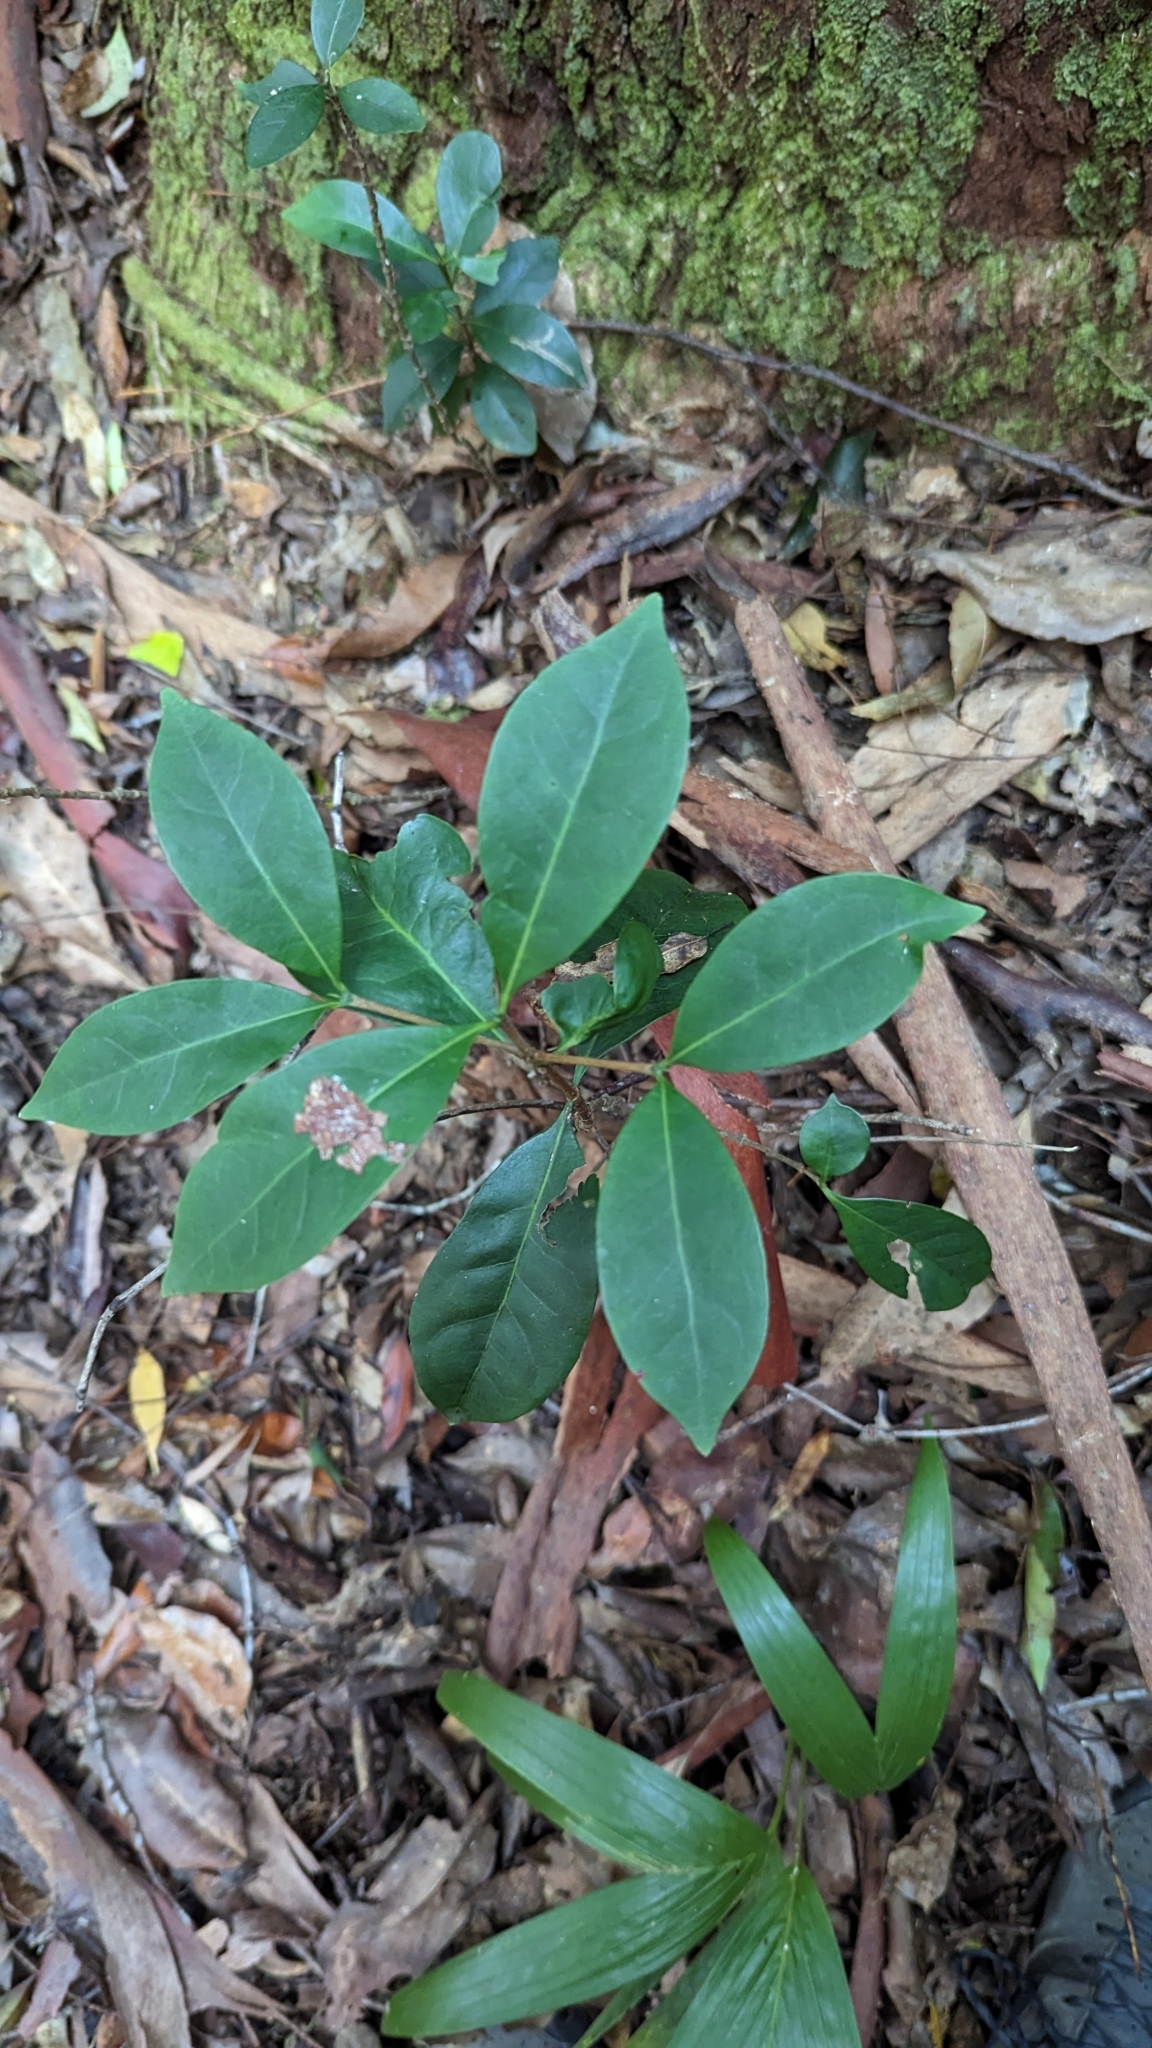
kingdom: Plantae
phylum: Tracheophyta
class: Magnoliopsida
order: Gentianales
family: Rubiaceae
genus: Cyclophyllum
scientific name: Cyclophyllum longipetalum
